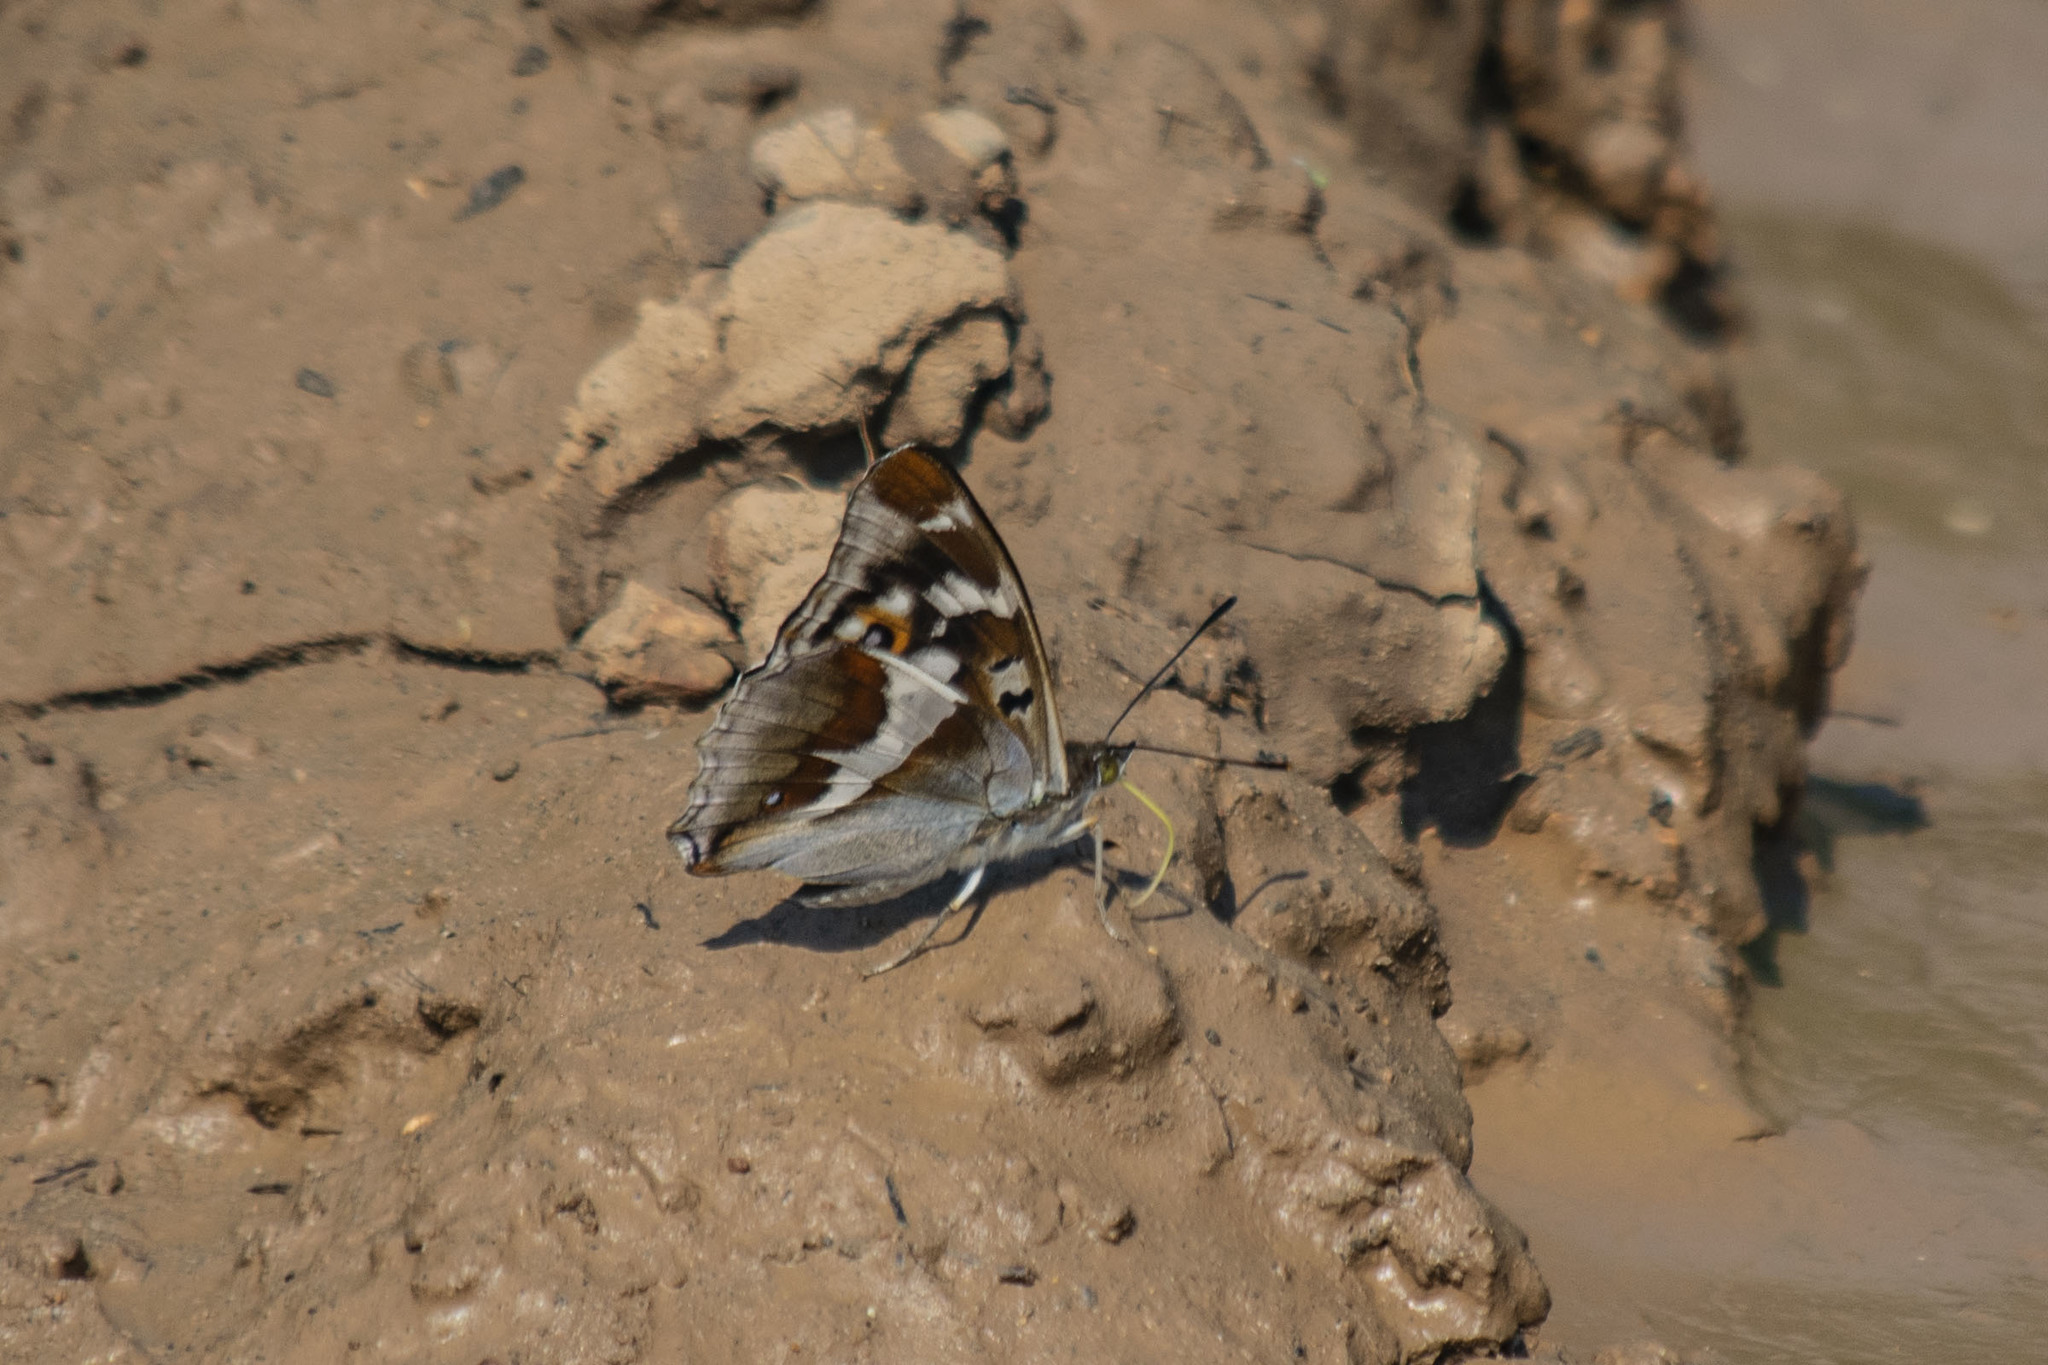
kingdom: Animalia
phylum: Arthropoda
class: Insecta
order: Lepidoptera
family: Nymphalidae
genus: Apatura
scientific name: Apatura iris
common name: Purple emperor
